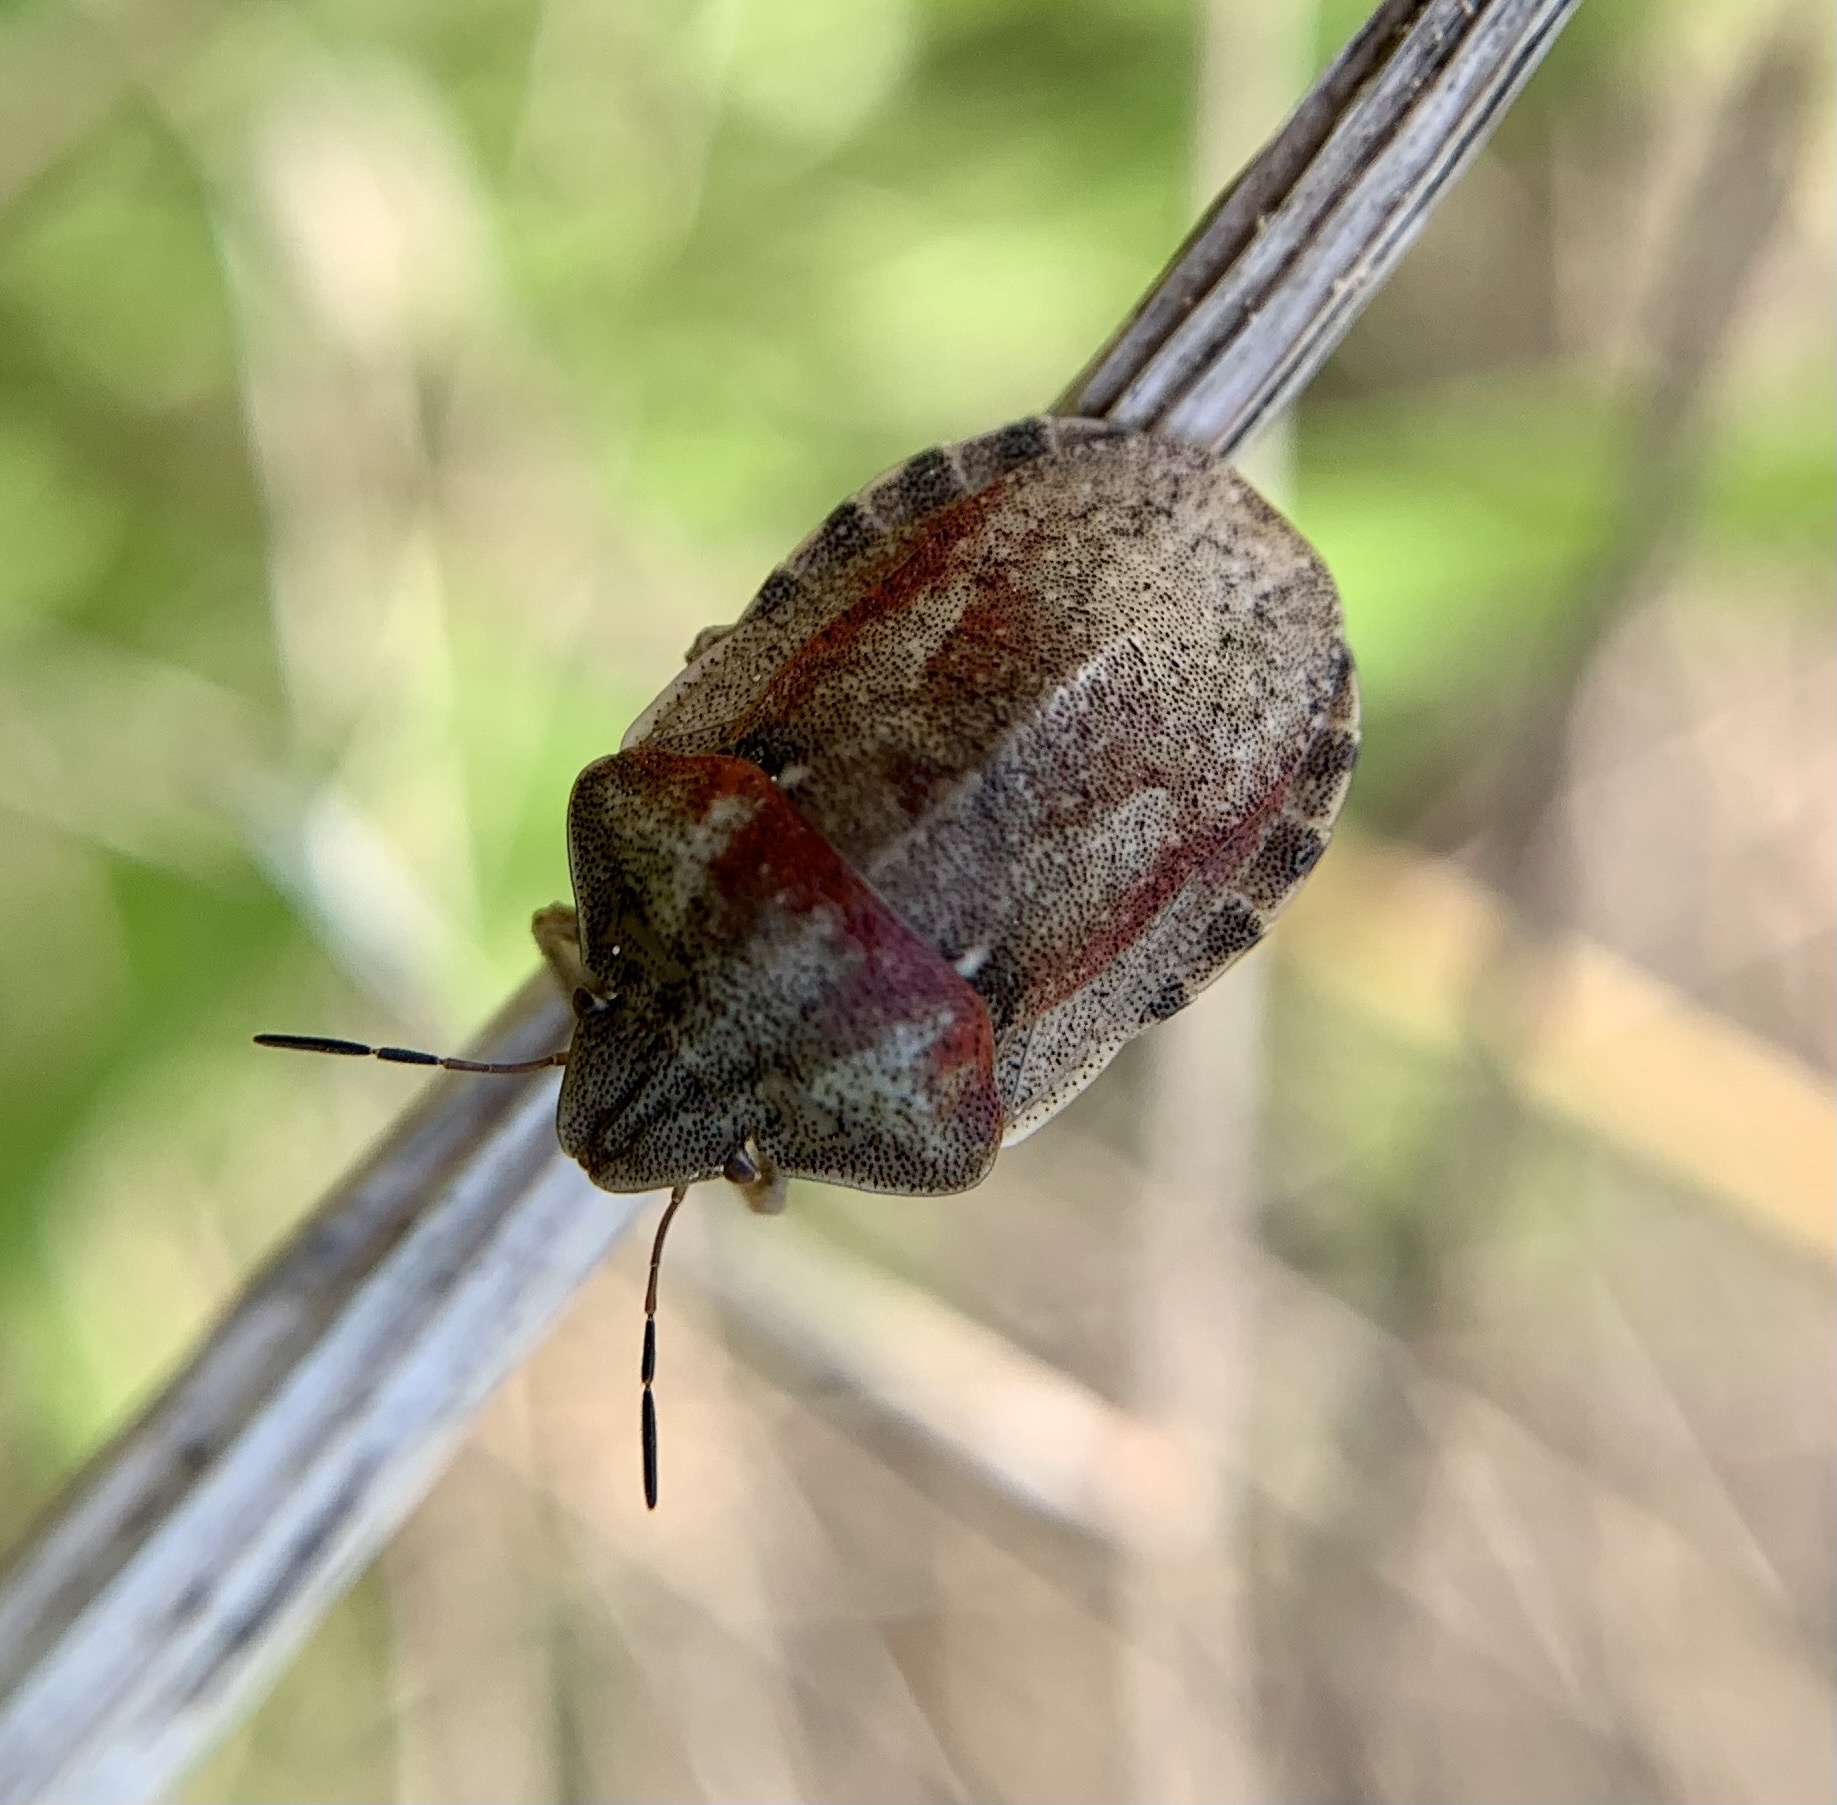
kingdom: Animalia
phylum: Arthropoda
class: Insecta
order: Hemiptera
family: Scutelleridae
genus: Eurygaster
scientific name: Eurygaster testudinaria
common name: Tortoise bug
